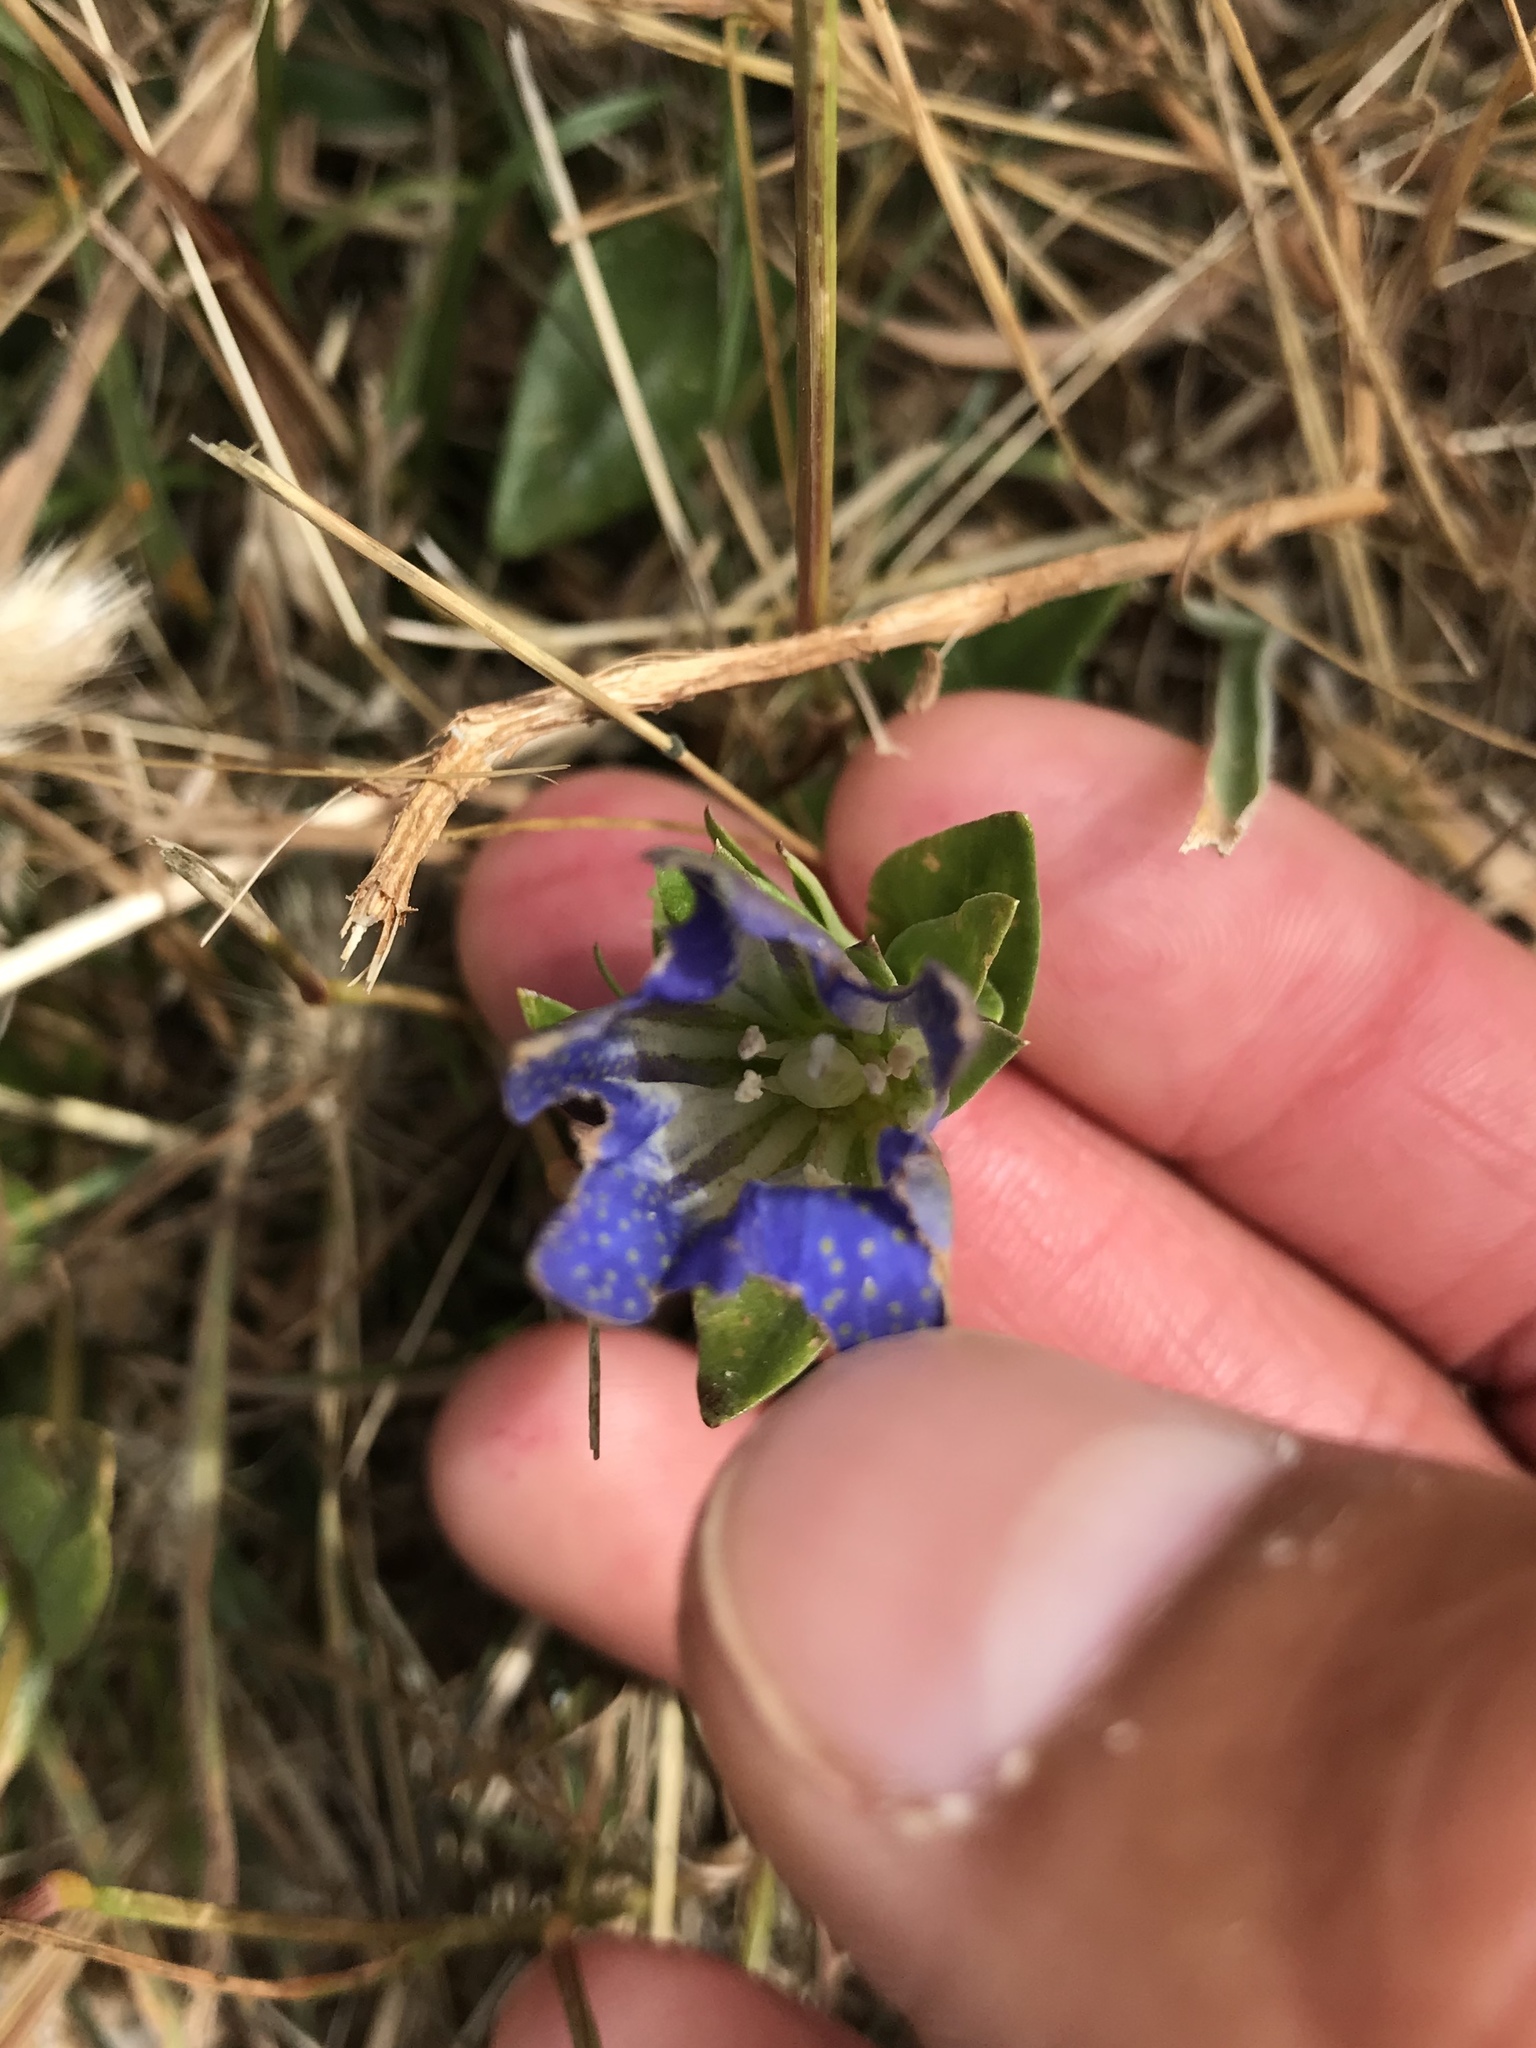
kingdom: Plantae
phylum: Tracheophyta
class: Magnoliopsida
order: Gentianales
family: Gentianaceae
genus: Gentiana
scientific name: Gentiana affinis
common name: Rocky mountain gentian
